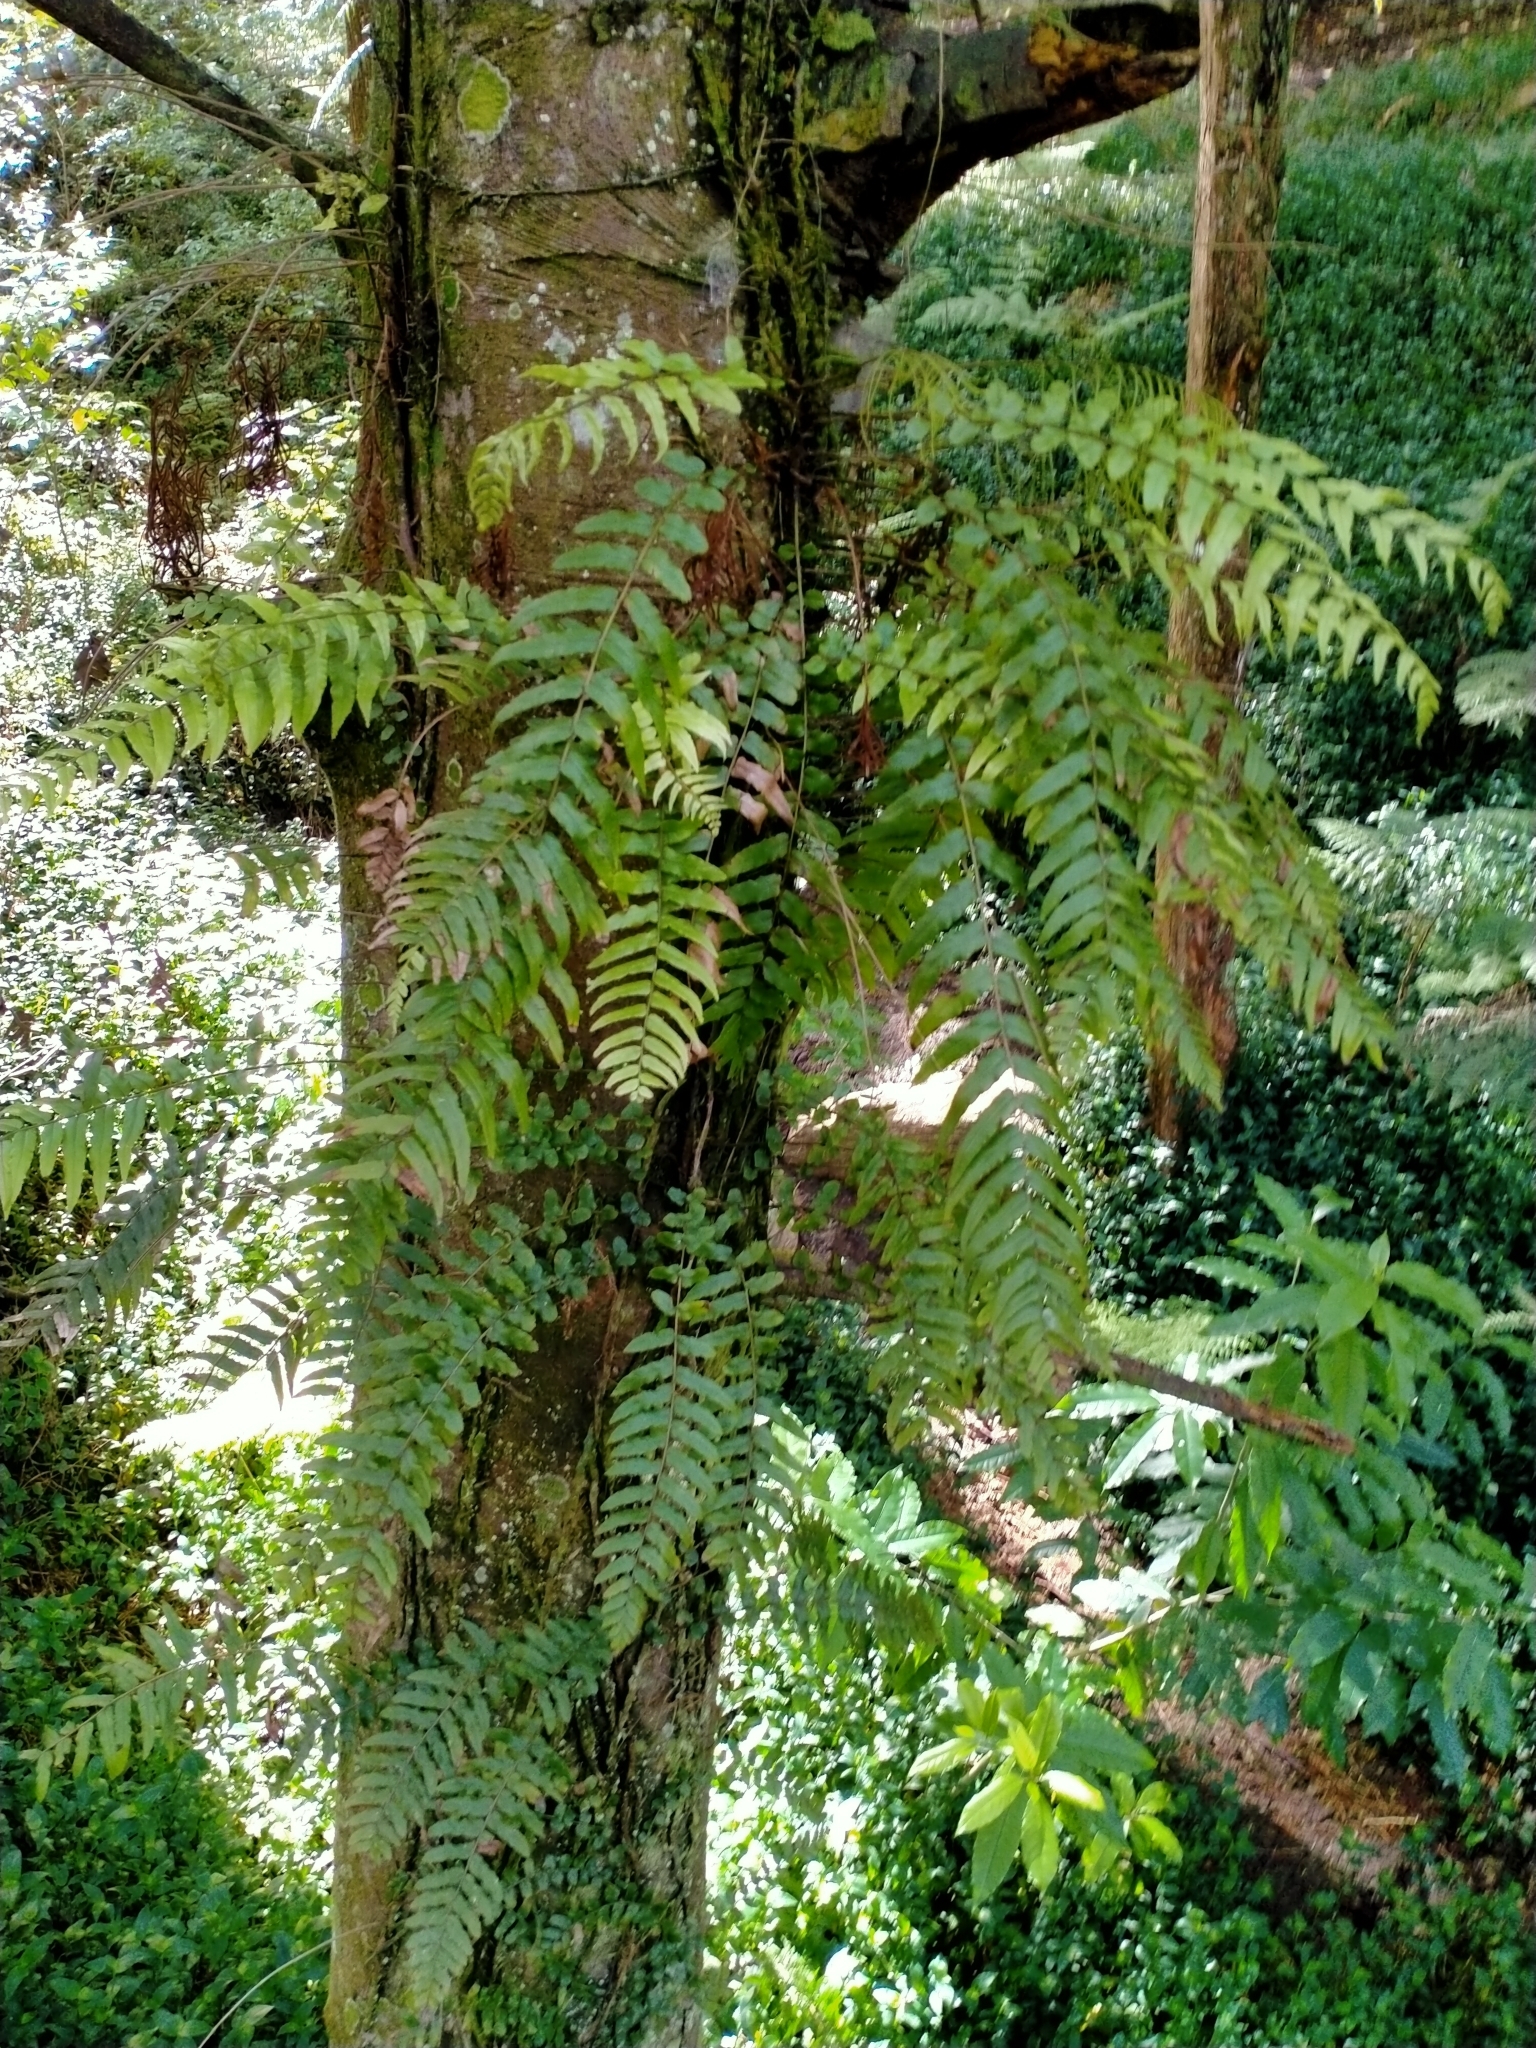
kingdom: Plantae
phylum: Tracheophyta
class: Polypodiopsida
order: Polypodiales
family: Blechnaceae
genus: Icarus
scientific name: Icarus filiformis
